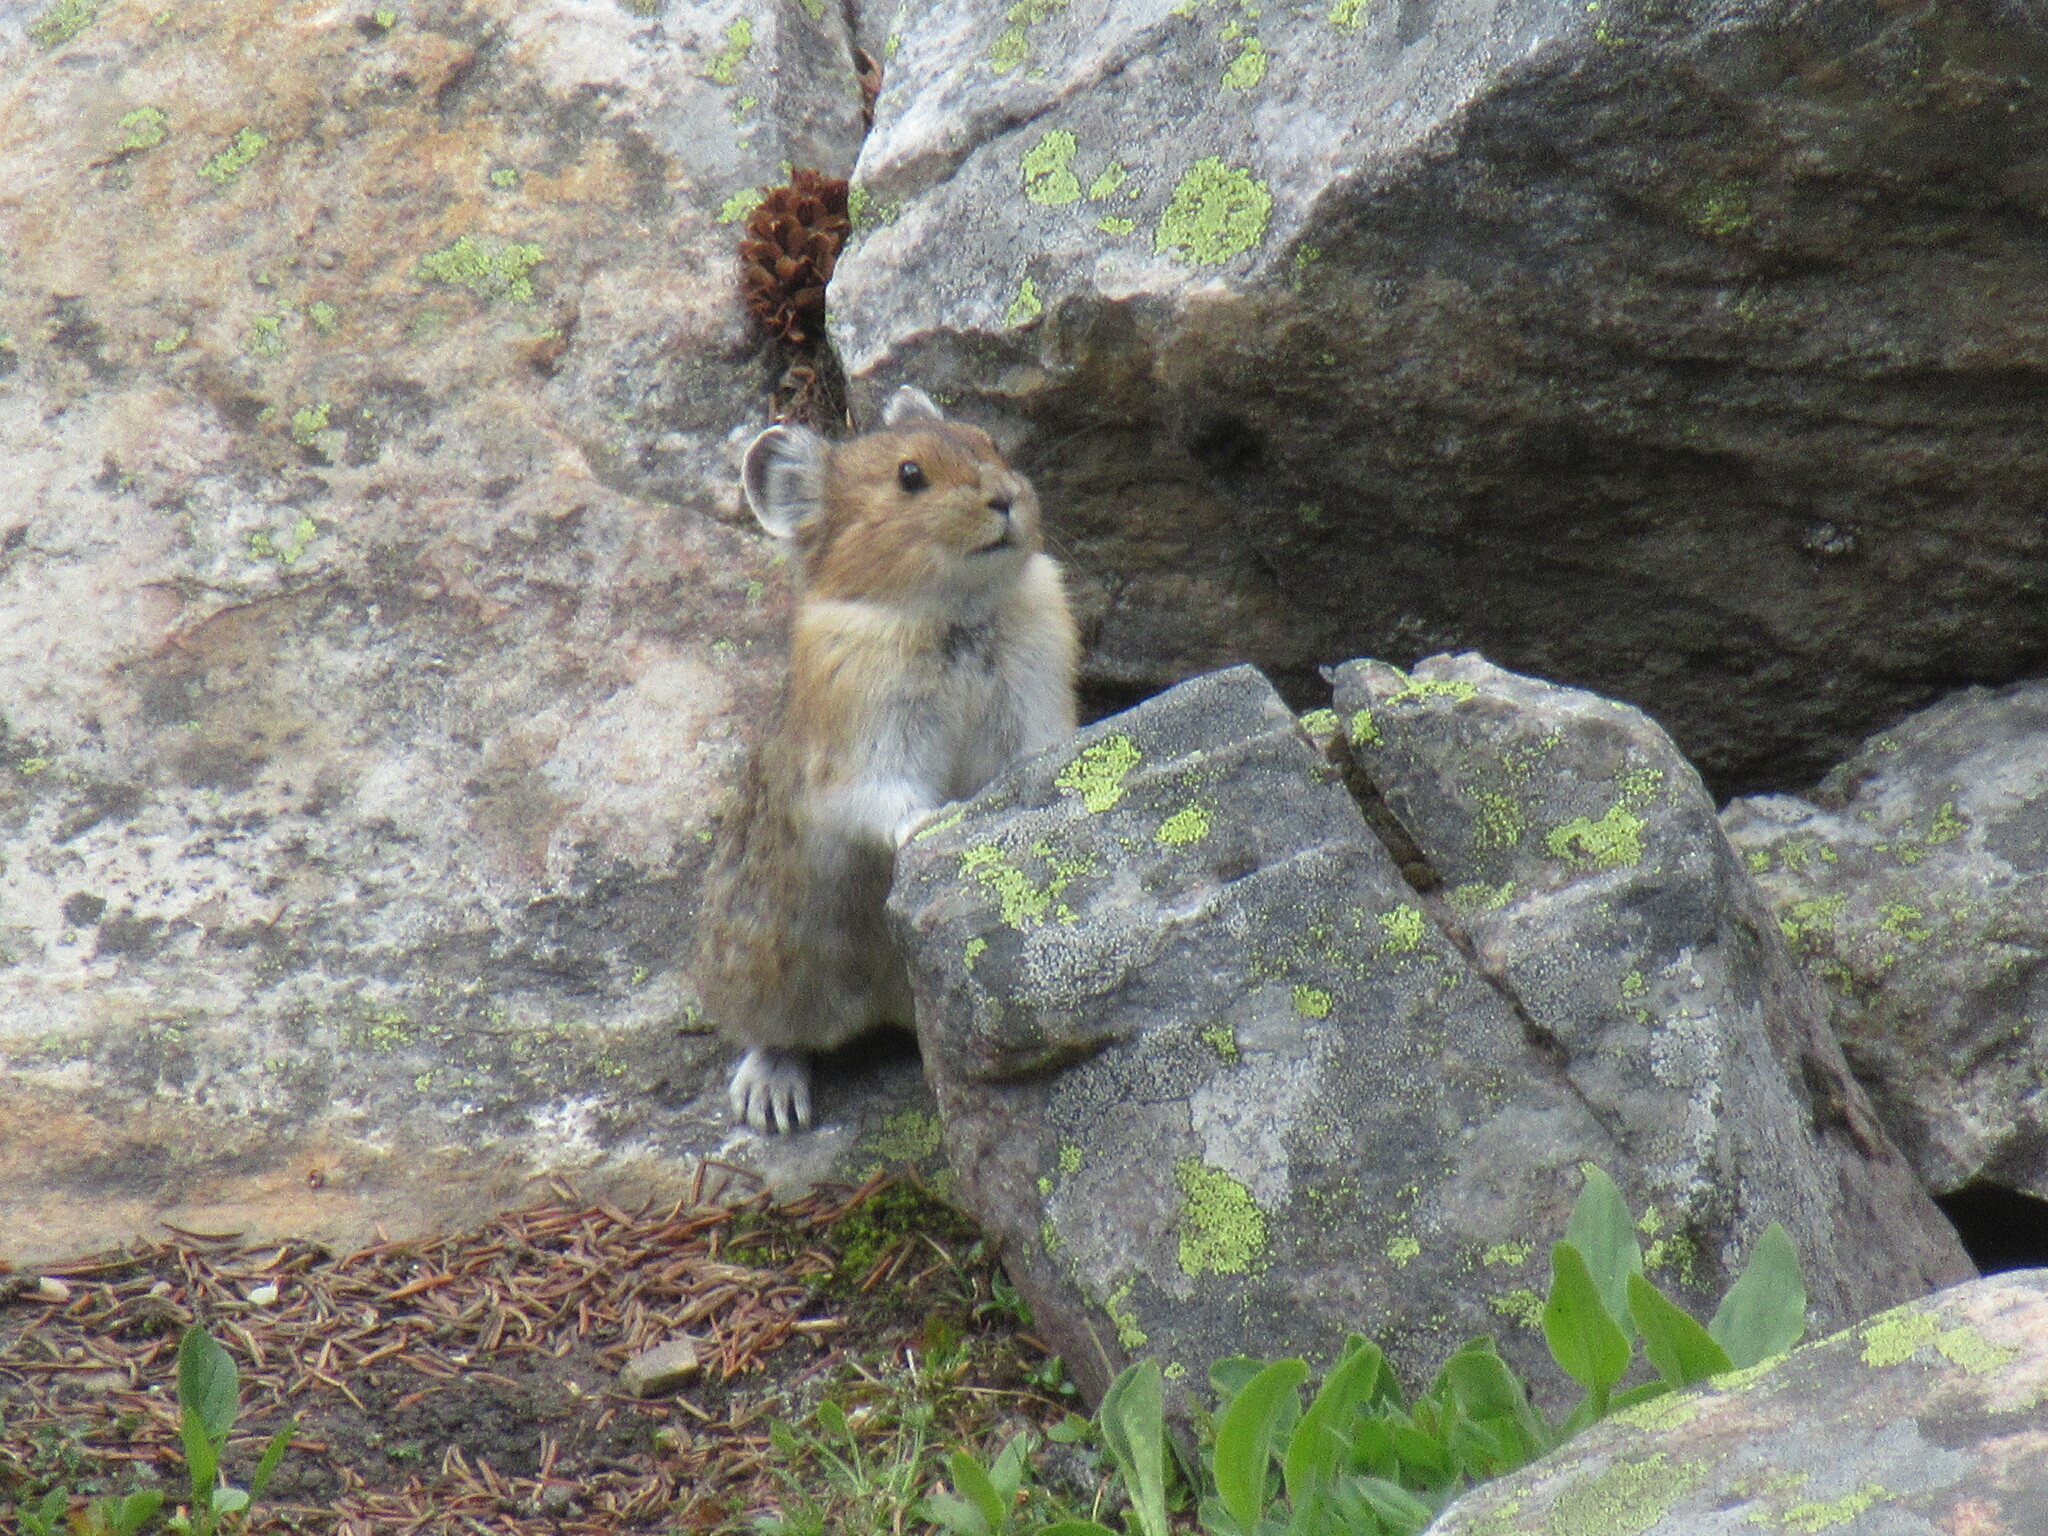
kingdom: Animalia
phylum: Chordata
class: Mammalia
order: Lagomorpha
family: Ochotonidae
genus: Ochotona
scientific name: Ochotona princeps
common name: American pika
